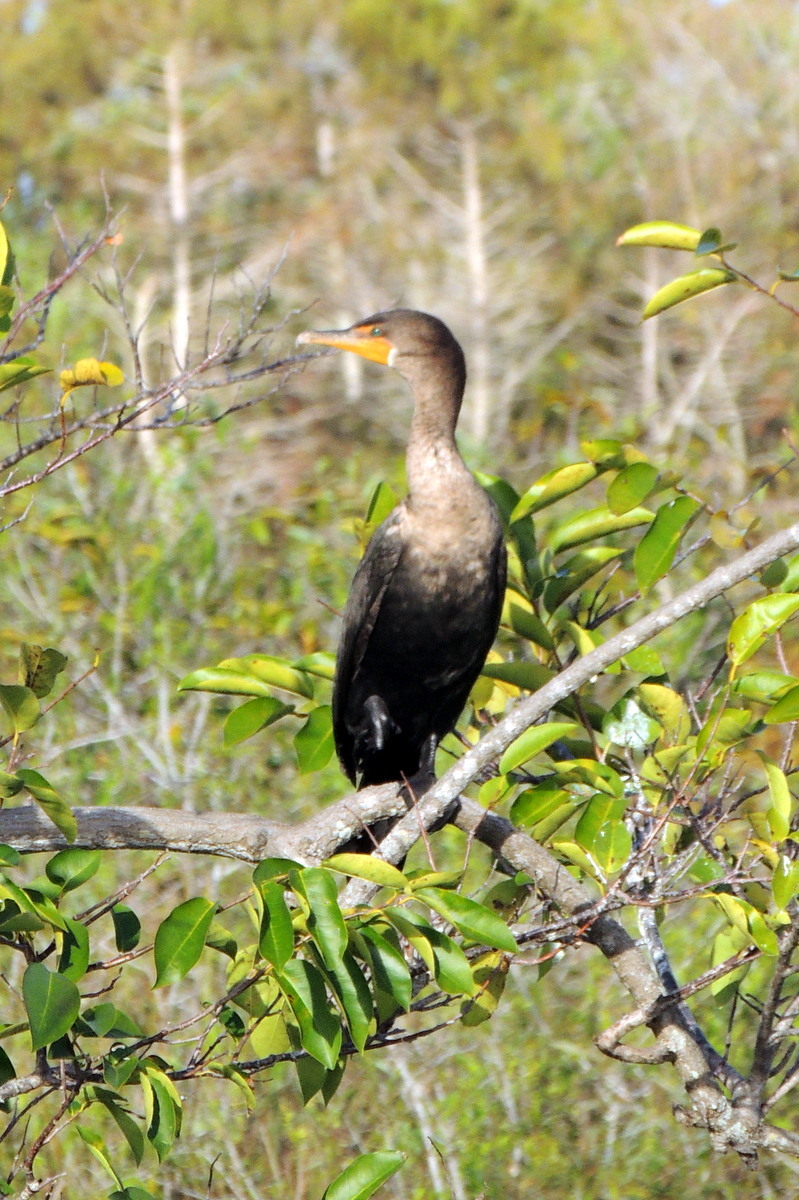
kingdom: Animalia
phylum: Chordata
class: Aves
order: Suliformes
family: Phalacrocoracidae
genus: Phalacrocorax
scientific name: Phalacrocorax auritus
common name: Double-crested cormorant
